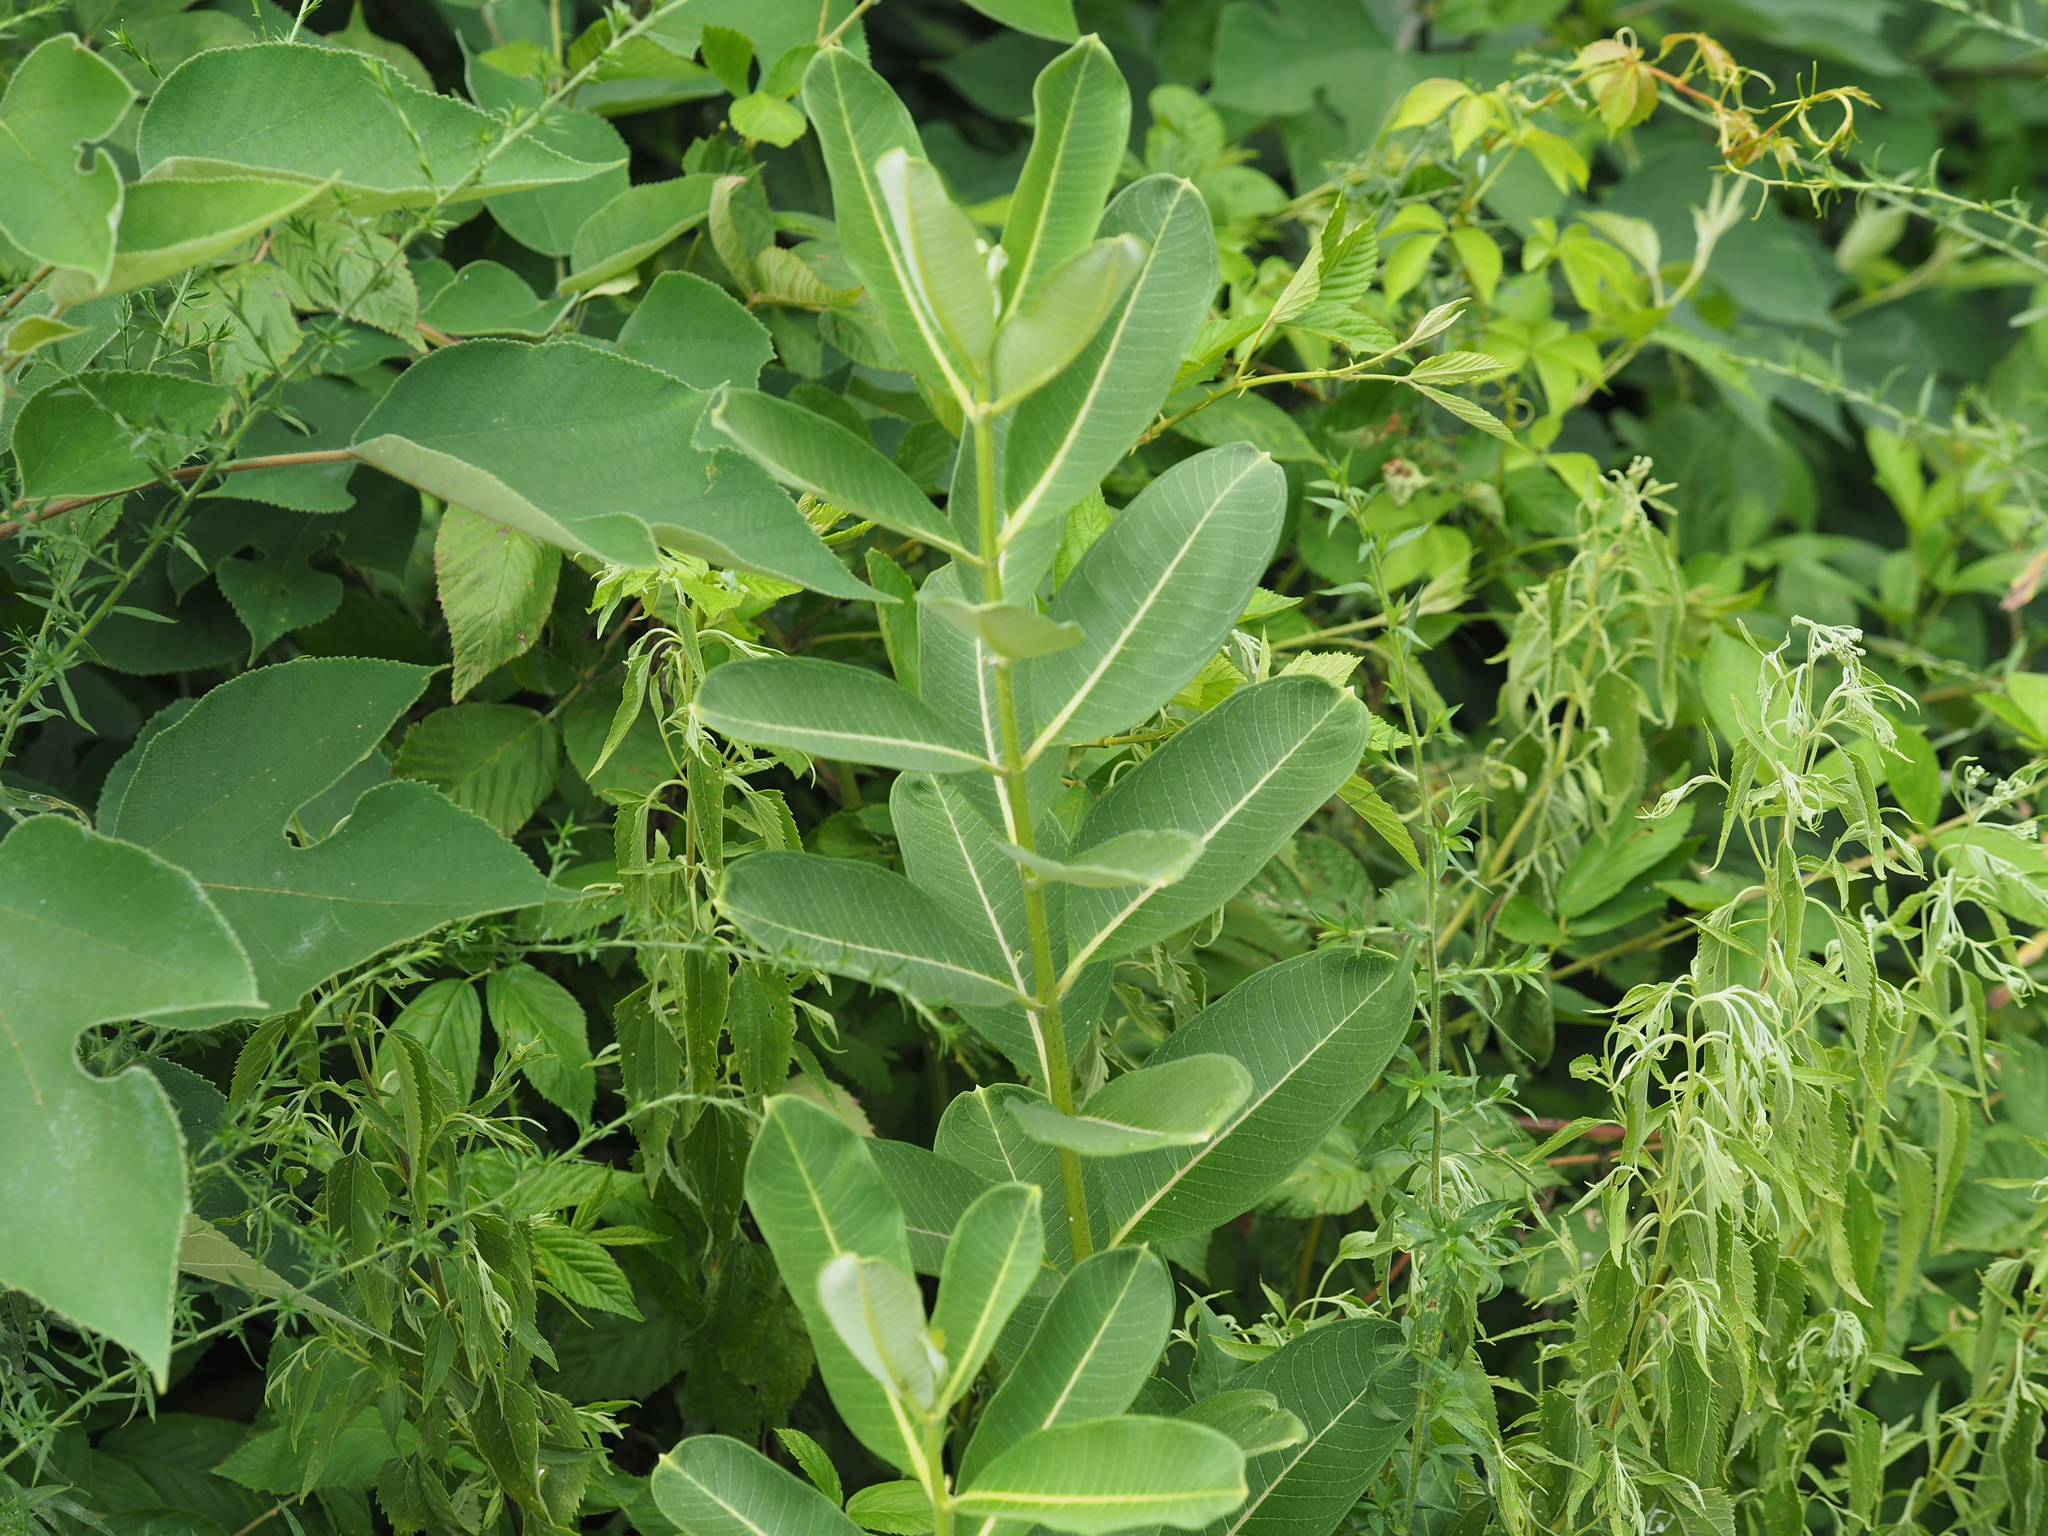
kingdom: Plantae
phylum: Tracheophyta
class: Magnoliopsida
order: Gentianales
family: Apocynaceae
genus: Asclepias
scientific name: Asclepias syriaca
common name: Common milkweed
